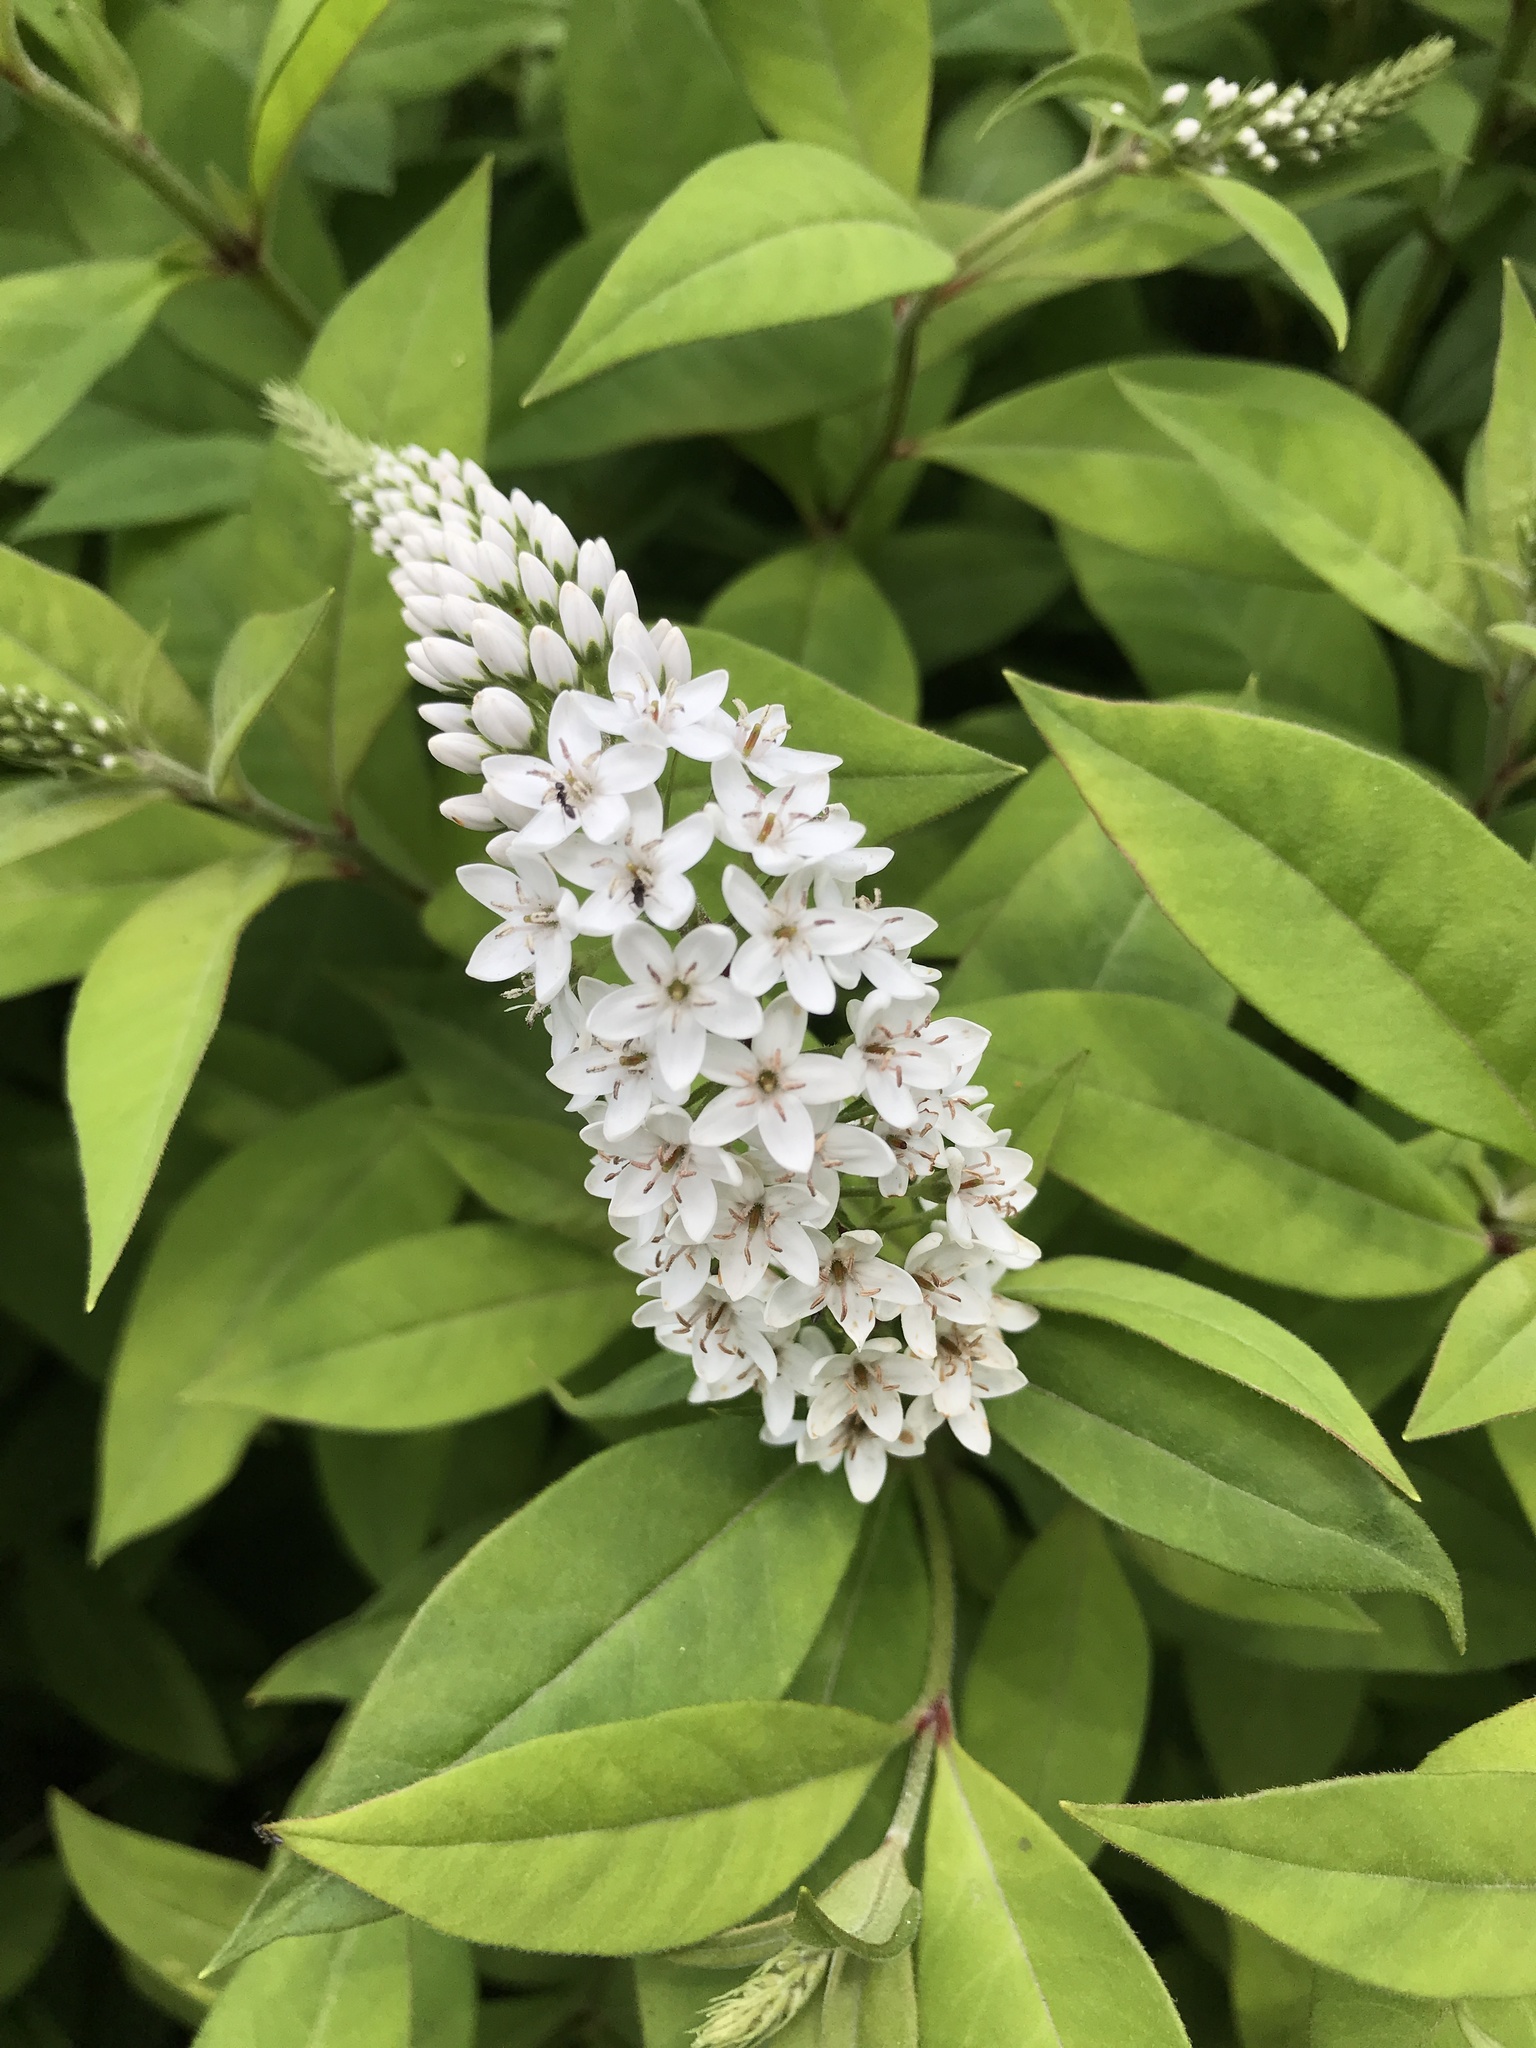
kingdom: Plantae
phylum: Tracheophyta
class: Magnoliopsida
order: Ericales
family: Primulaceae
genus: Lysimachia
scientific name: Lysimachia clethroides
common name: Gooseneck loosestrife
